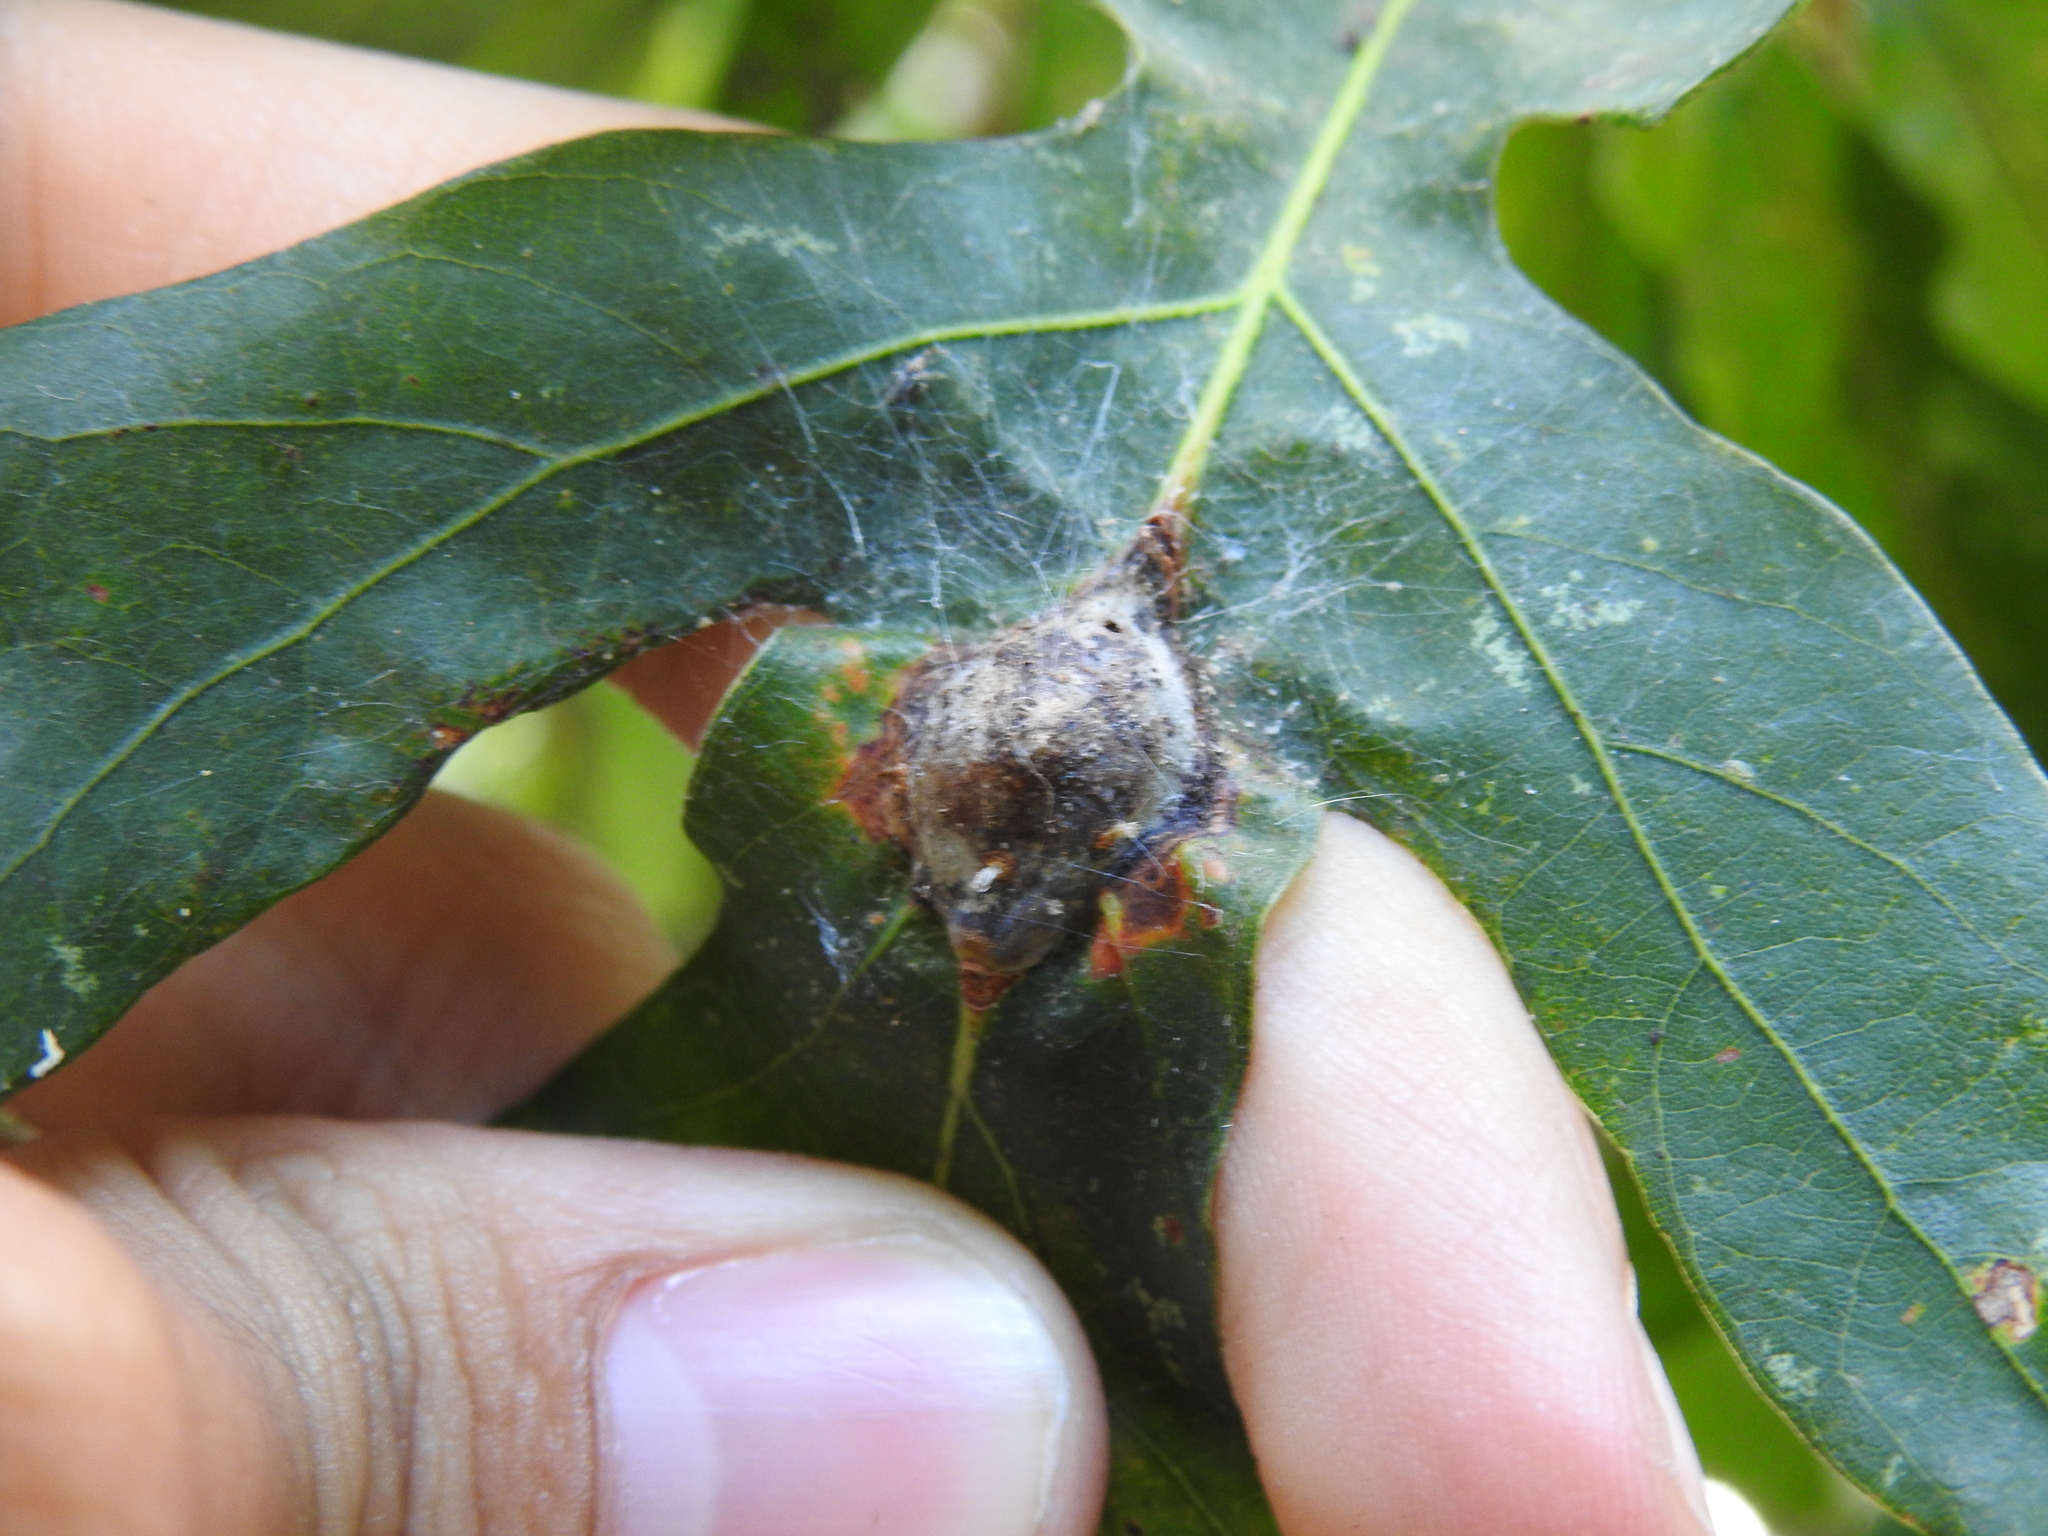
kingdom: Animalia
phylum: Arthropoda
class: Insecta
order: Hymenoptera
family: Cynipidae
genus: Andricus
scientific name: Andricus
